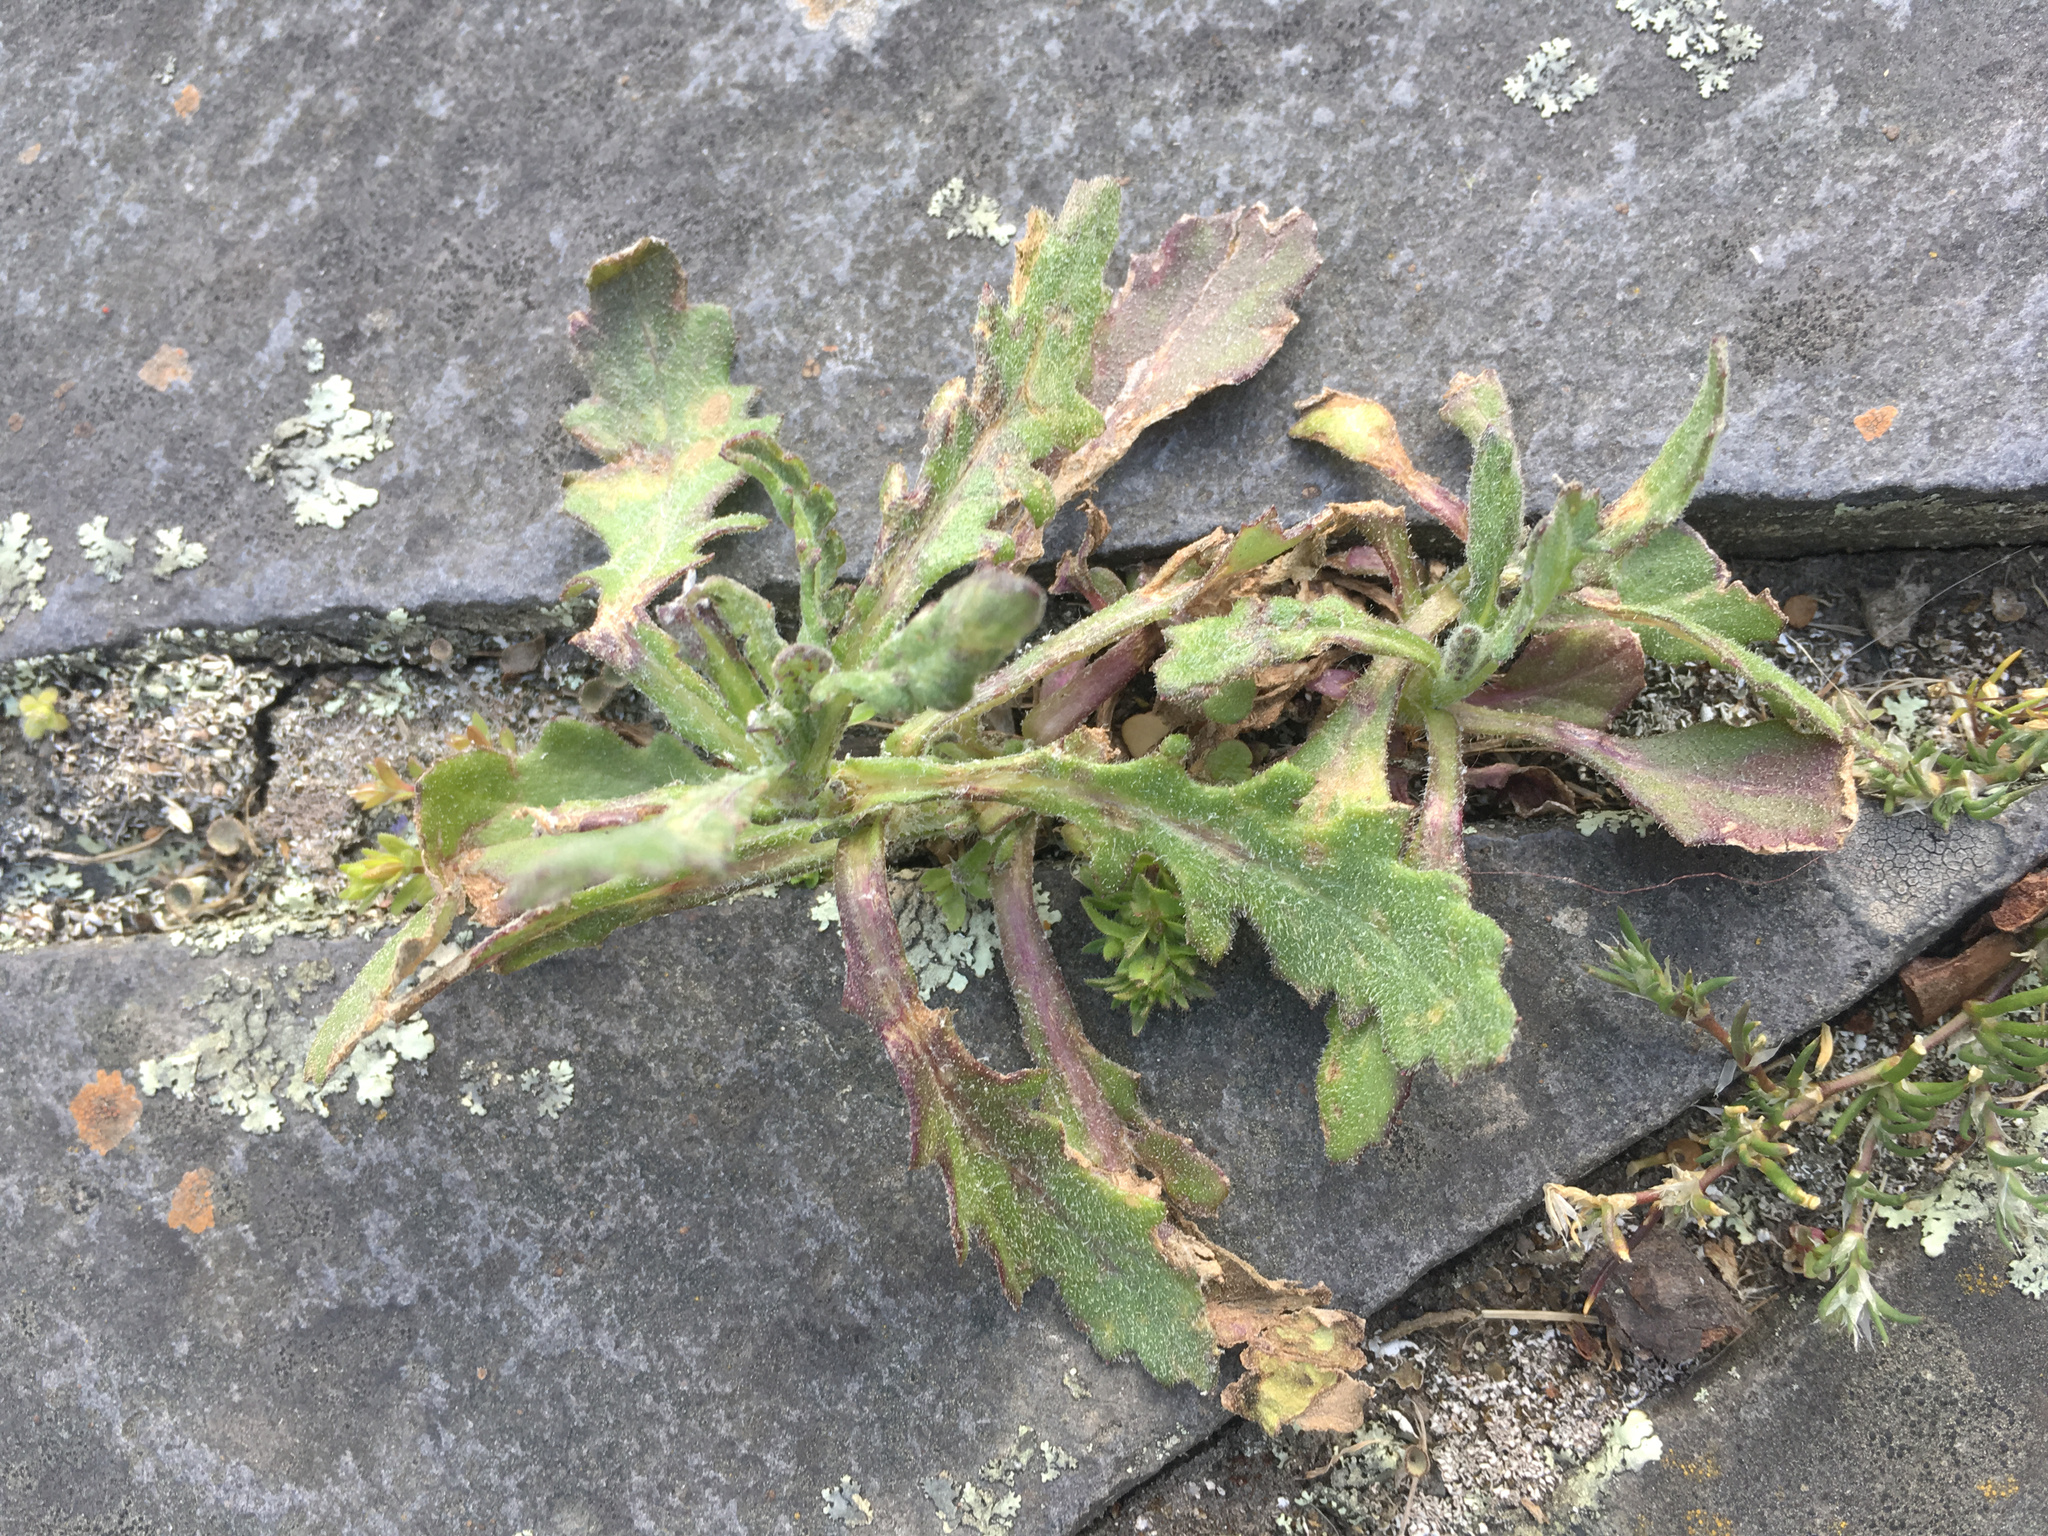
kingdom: Plantae
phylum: Tracheophyta
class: Magnoliopsida
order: Asterales
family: Asteraceae
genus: Senecio
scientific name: Senecio glomeratus
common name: Cutleaf burnweed
